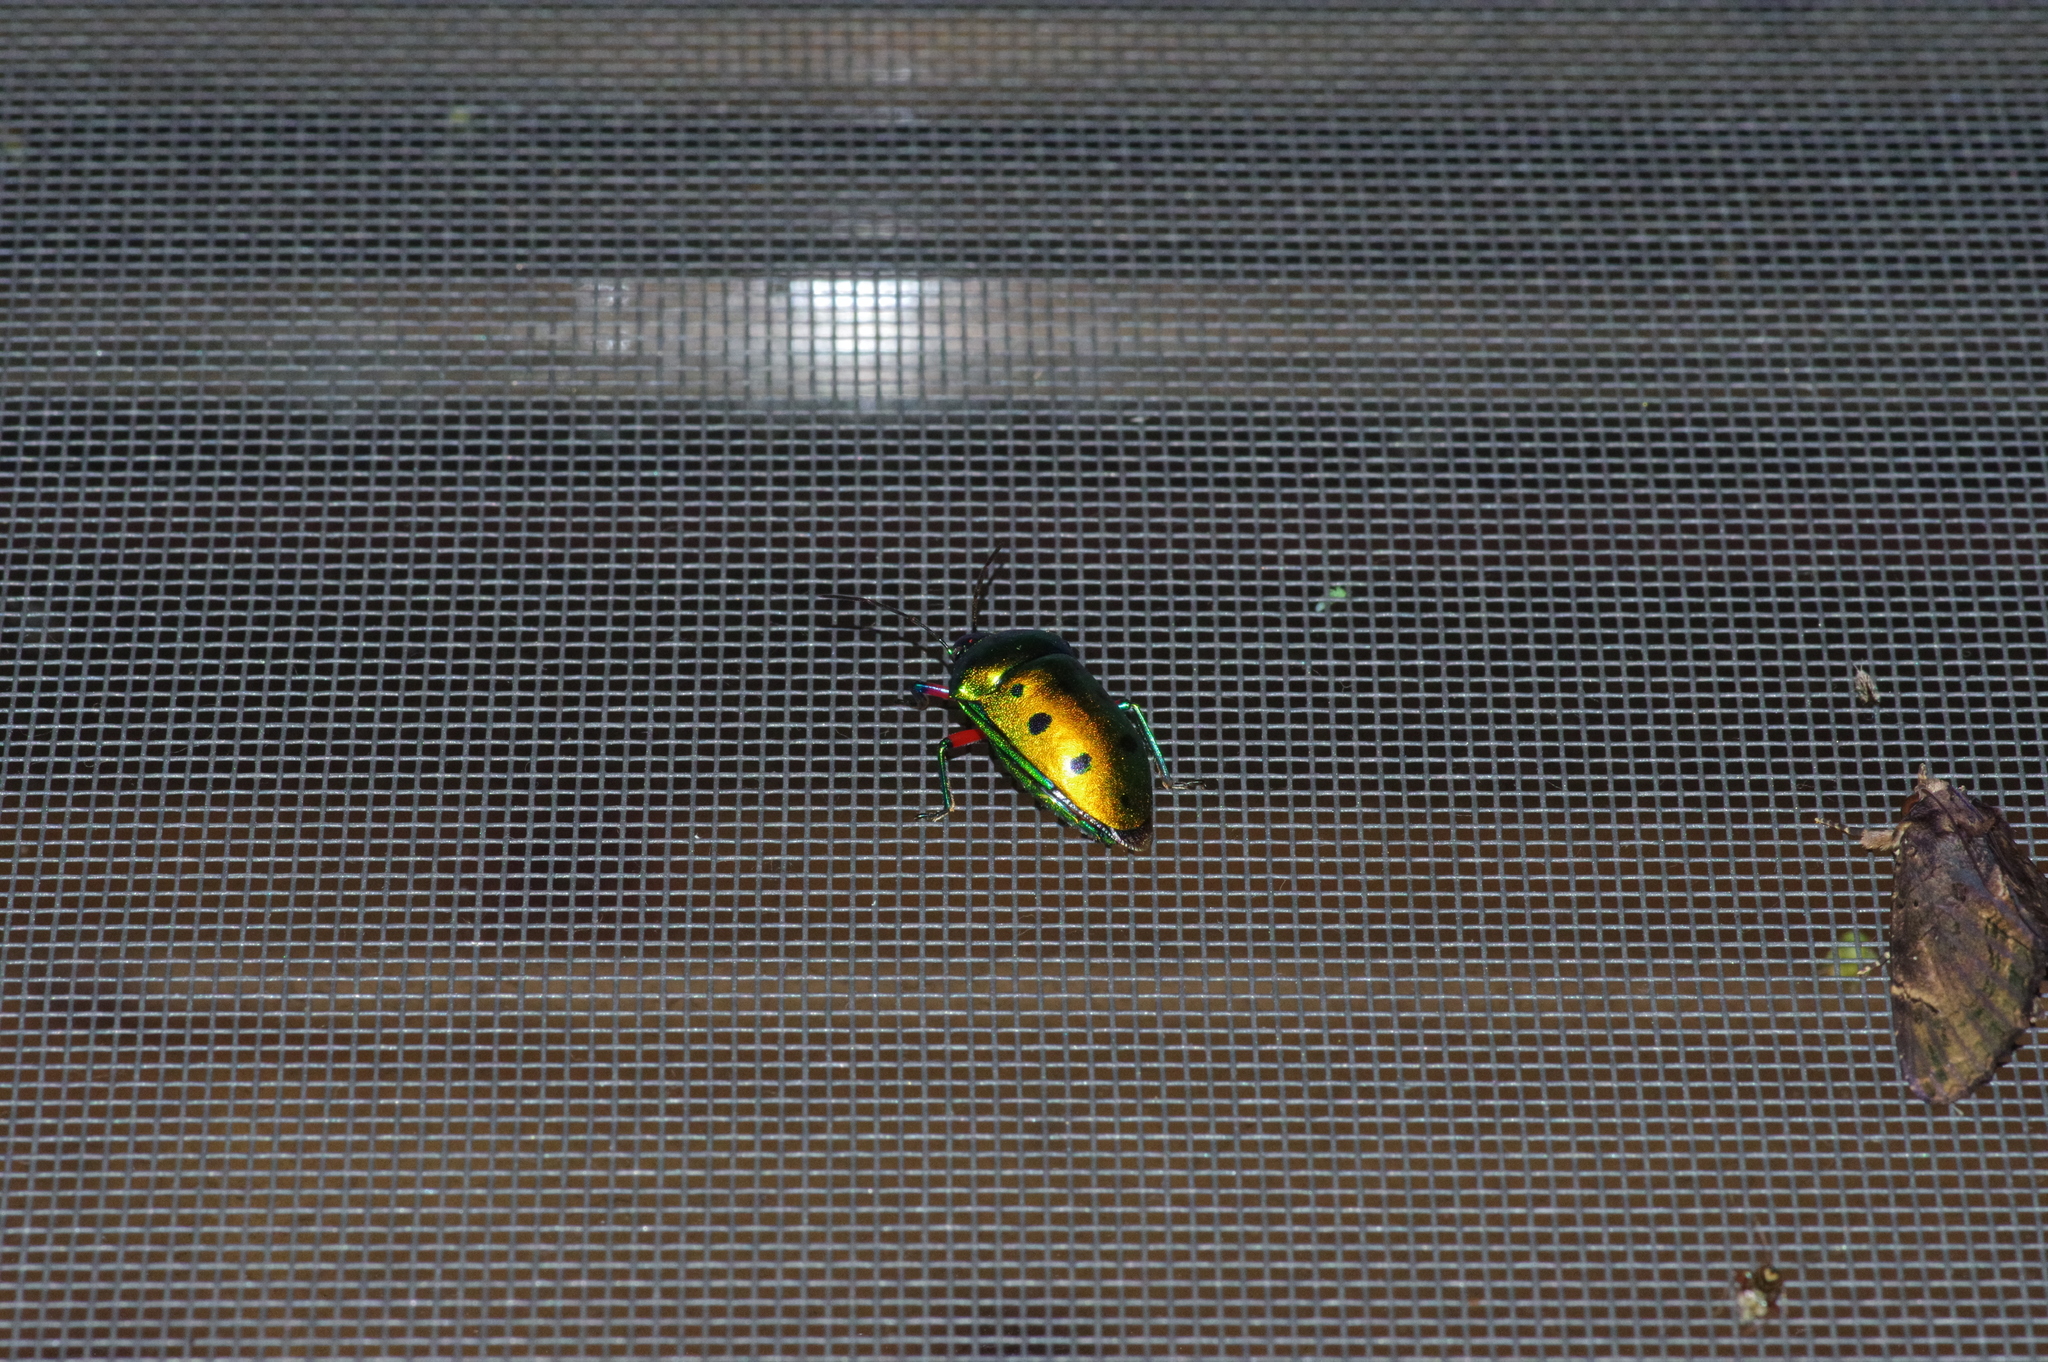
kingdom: Animalia
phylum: Arthropoda
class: Insecta
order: Hemiptera
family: Scutelleridae
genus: Calliphara
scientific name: Calliphara excellens
